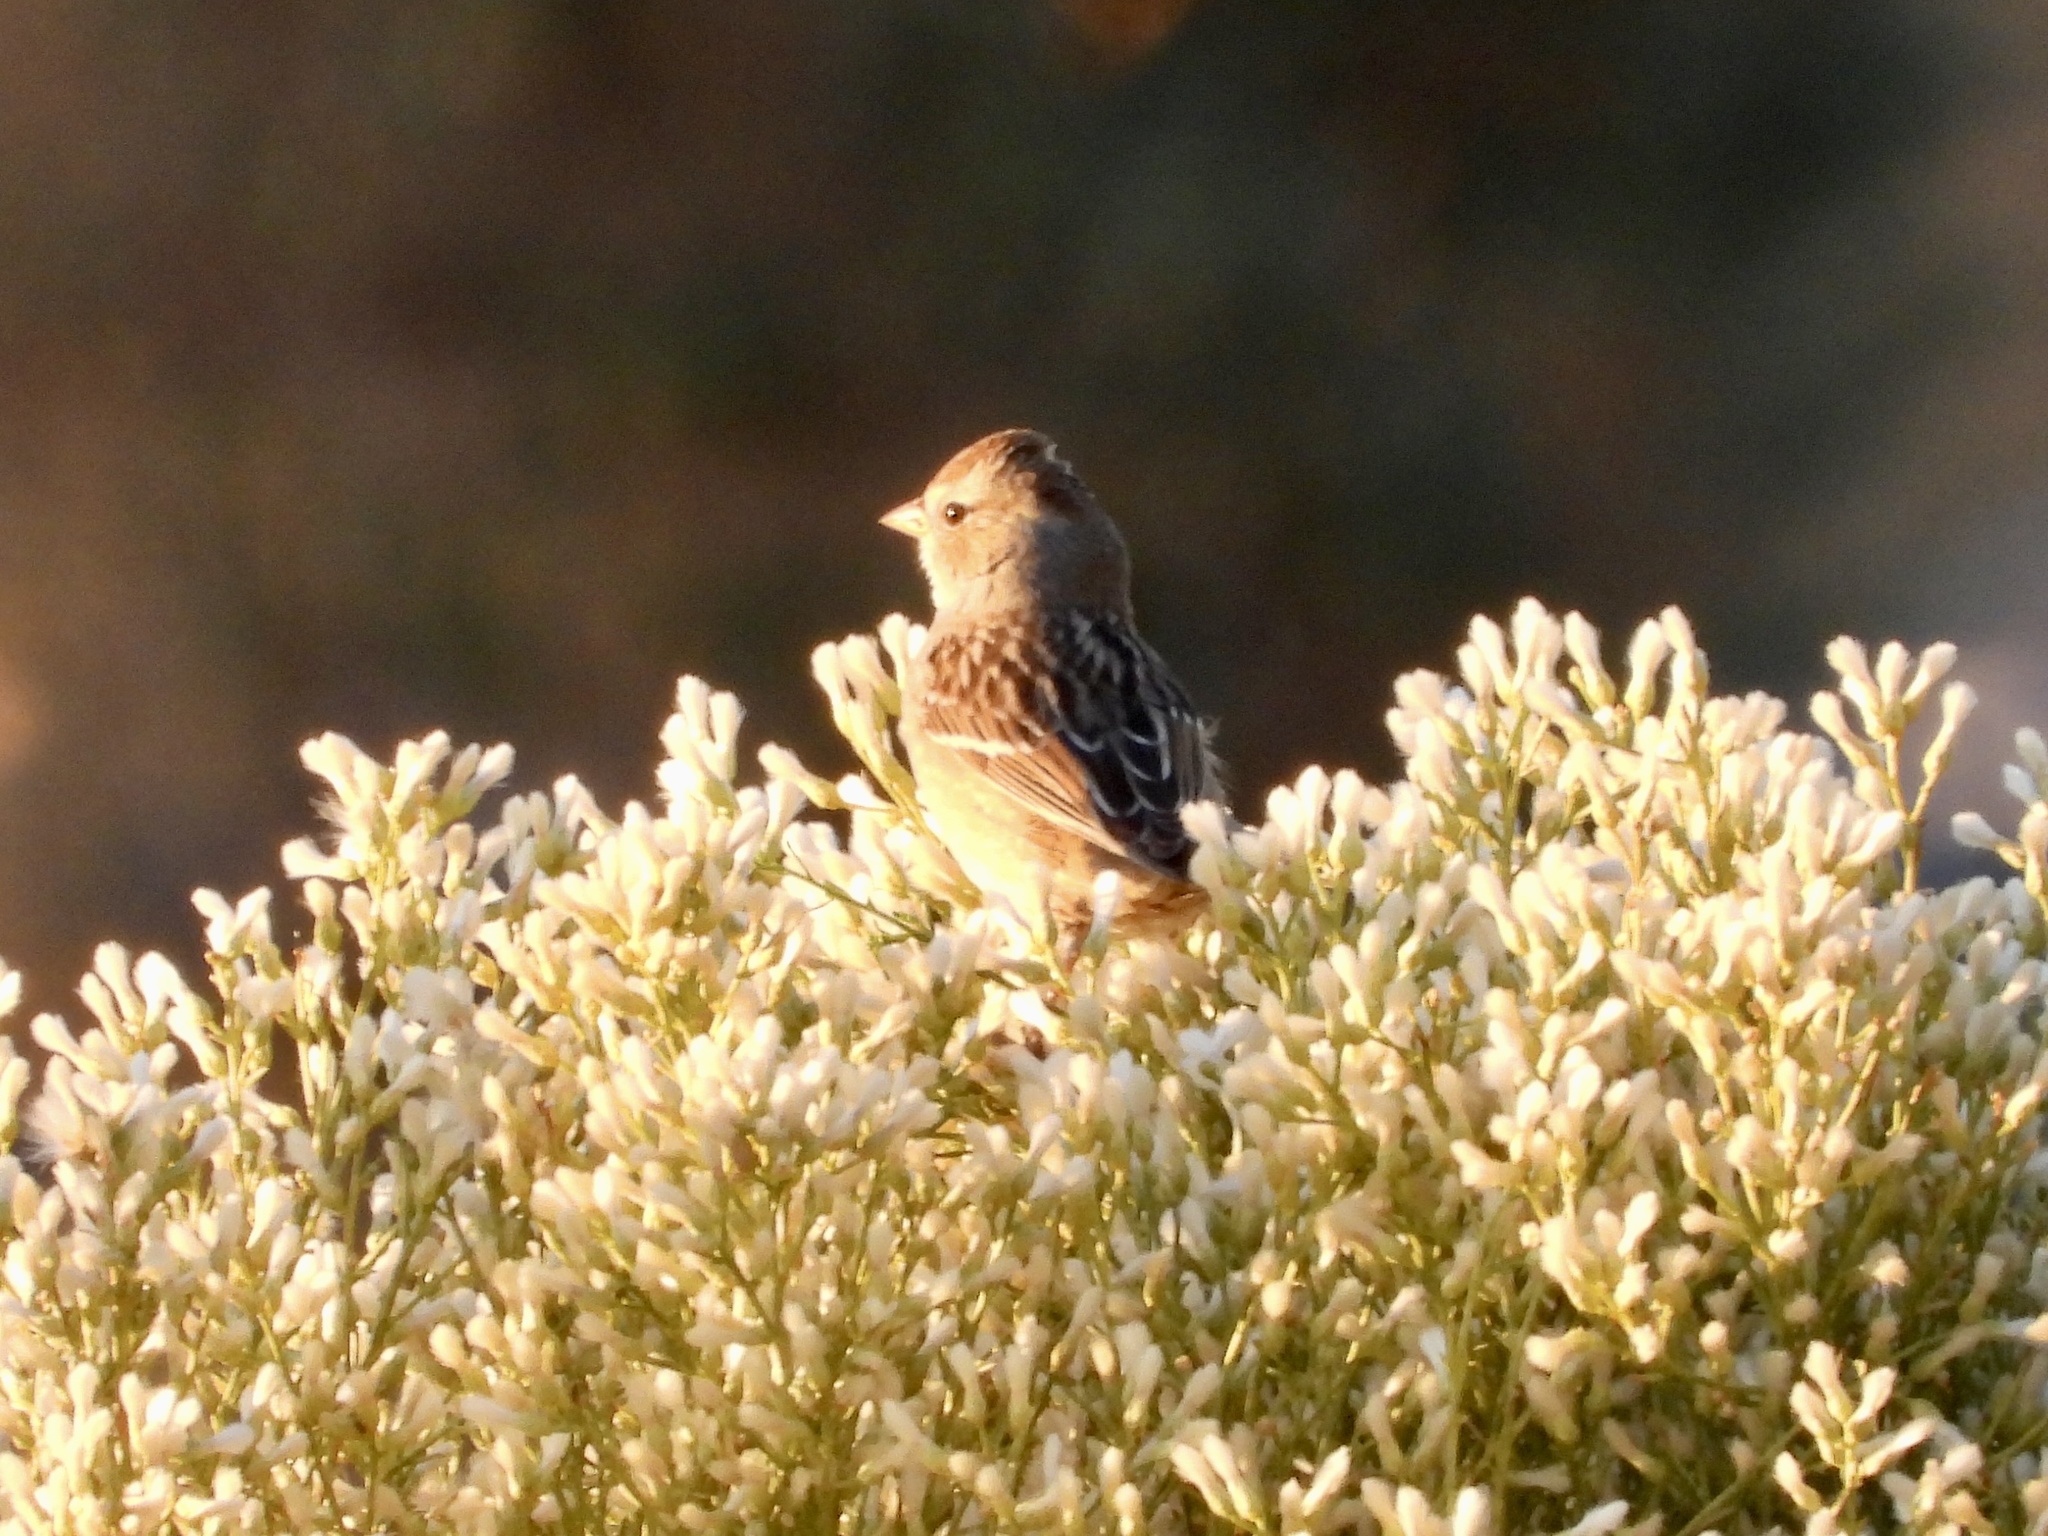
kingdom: Animalia
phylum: Chordata
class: Aves
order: Passeriformes
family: Passerellidae
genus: Zonotrichia
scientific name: Zonotrichia leucophrys
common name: White-crowned sparrow
